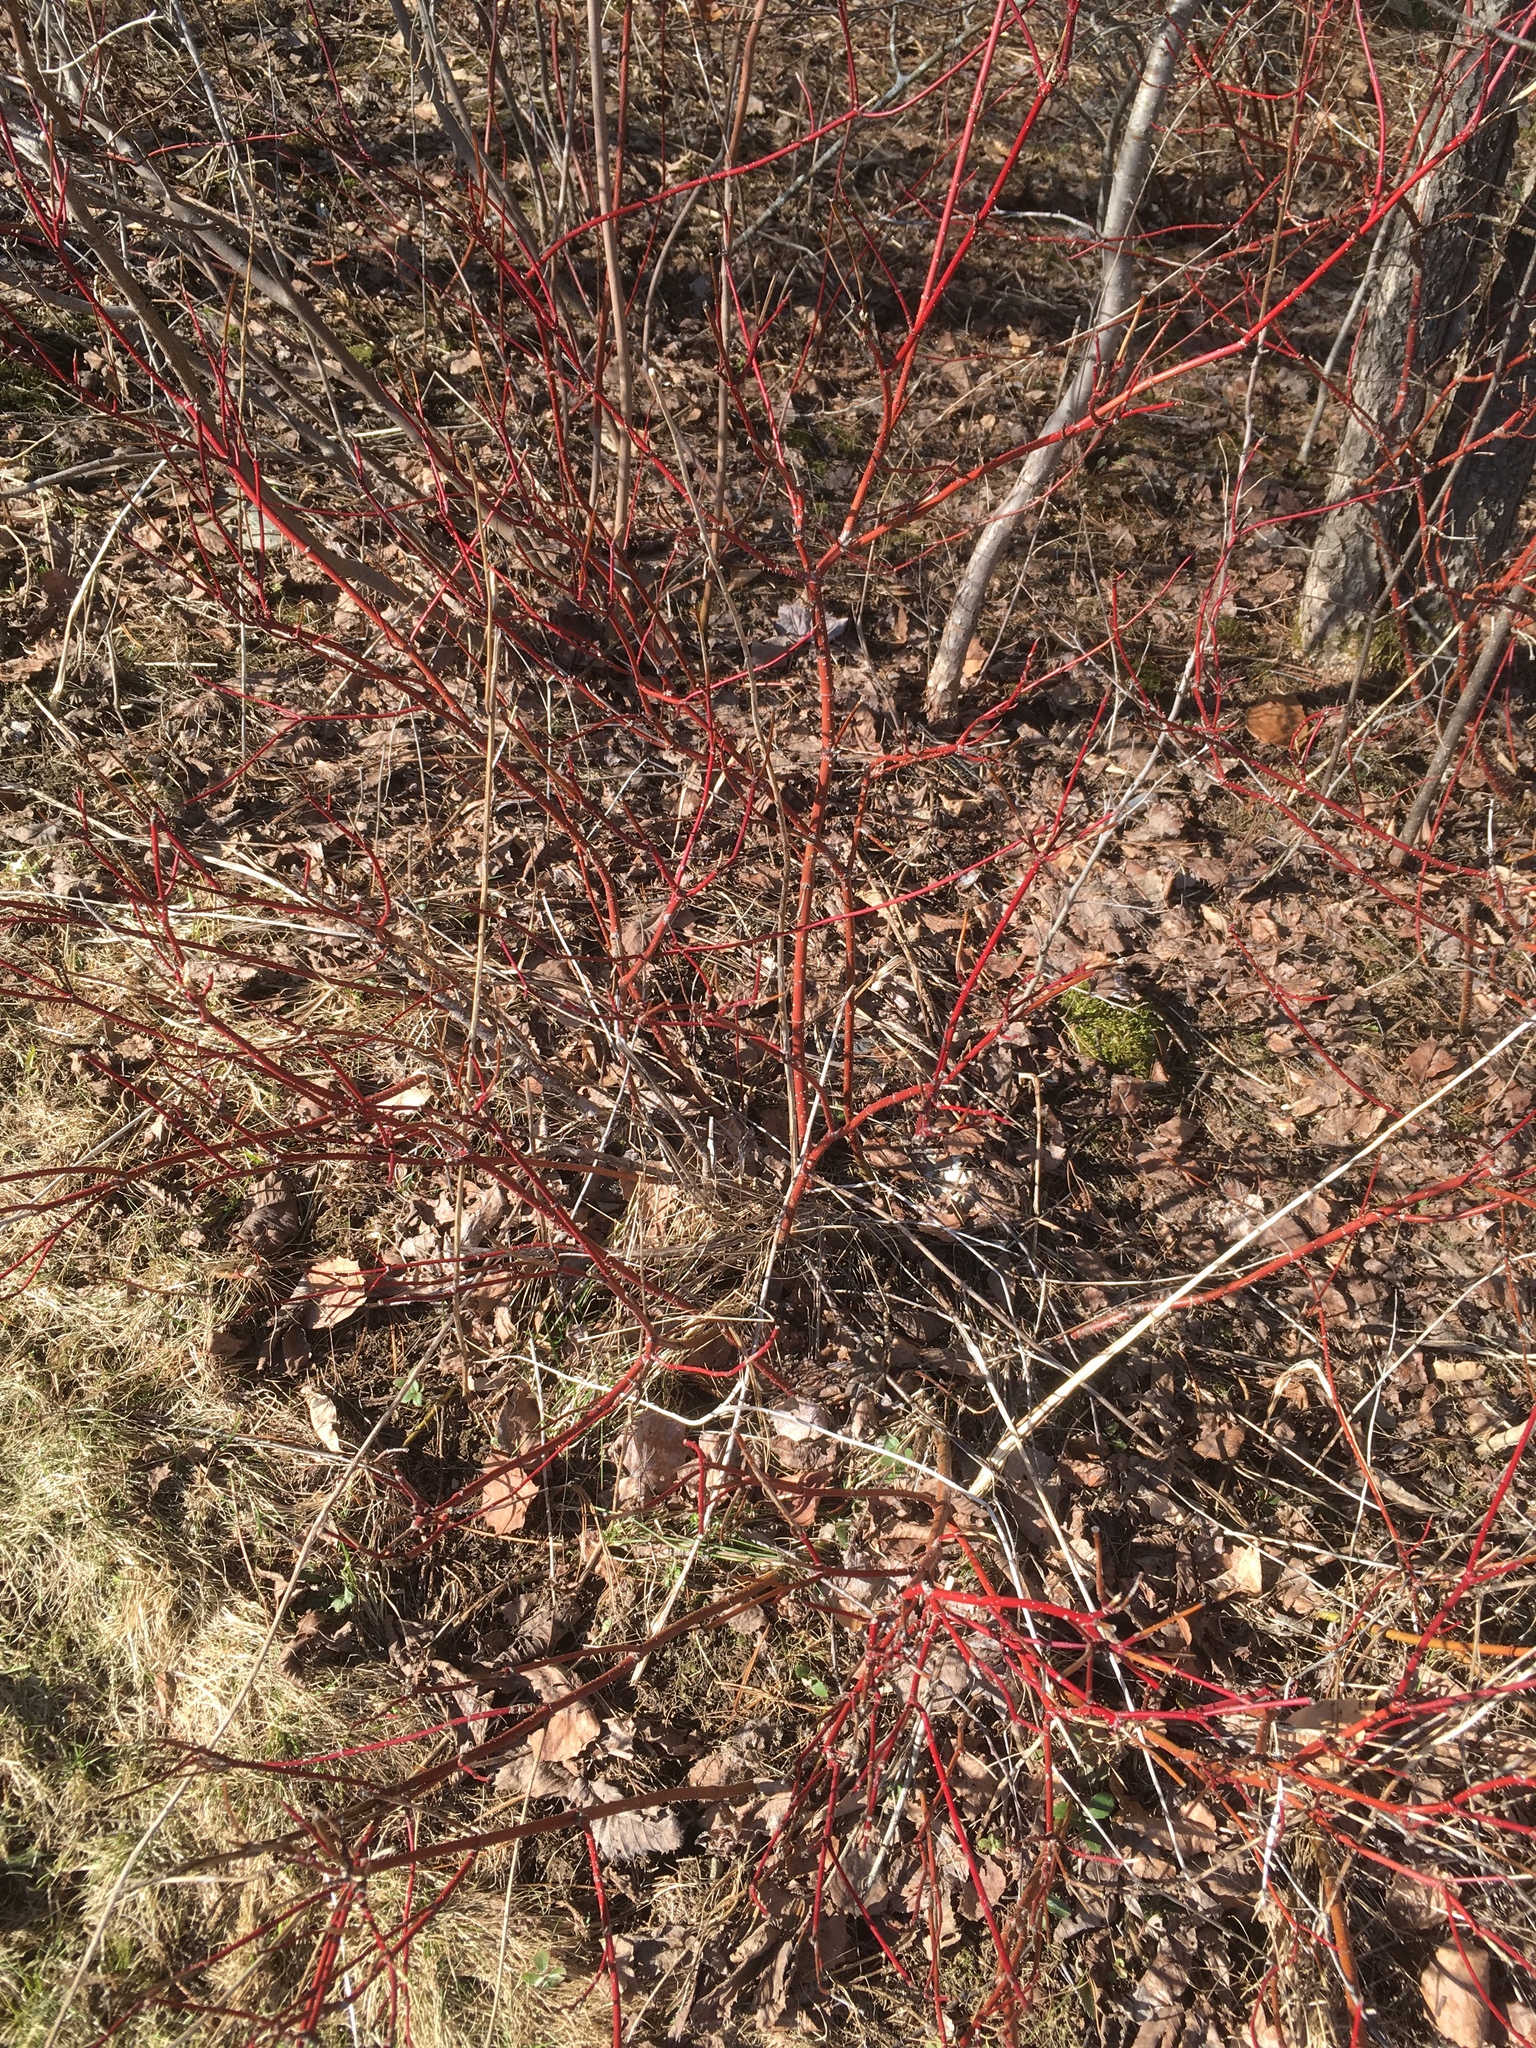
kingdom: Plantae
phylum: Tracheophyta
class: Magnoliopsida
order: Cornales
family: Cornaceae
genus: Cornus
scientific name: Cornus sericea
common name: Red-osier dogwood
